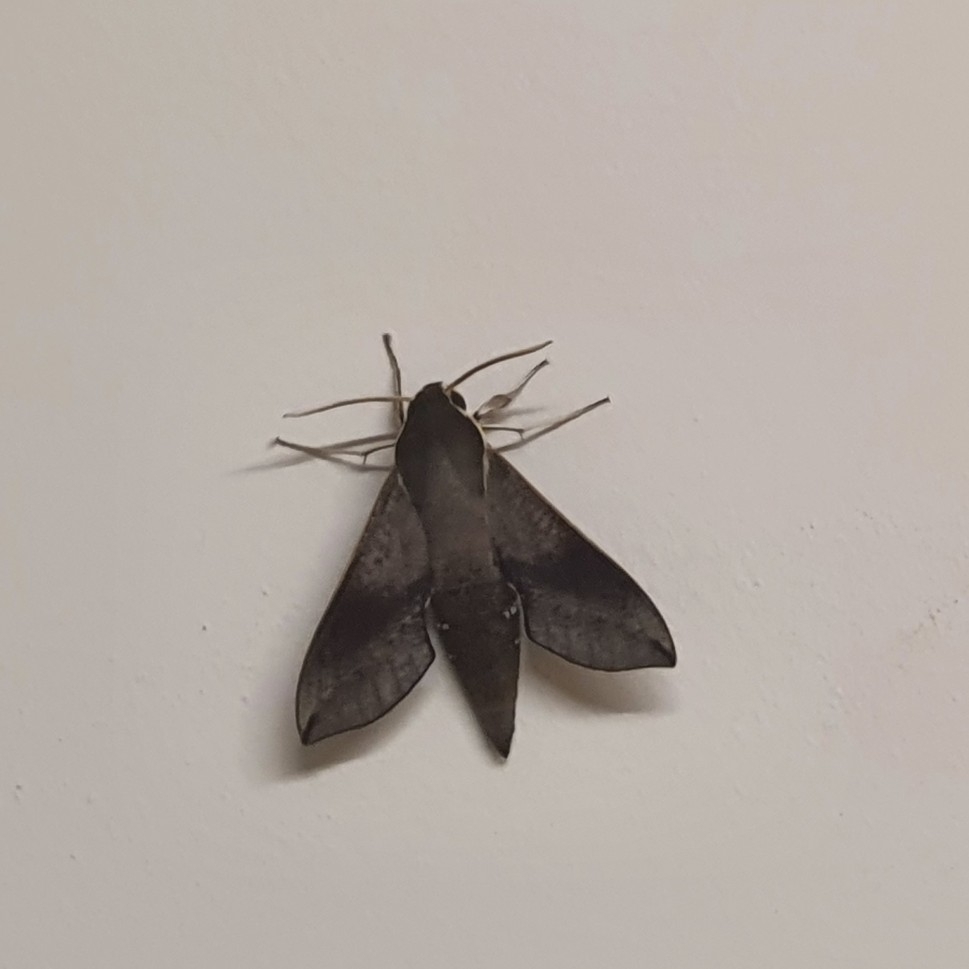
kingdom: Animalia
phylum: Arthropoda
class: Insecta
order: Lepidoptera
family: Sphingidae
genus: Hippotion
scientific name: Hippotion scrofa
